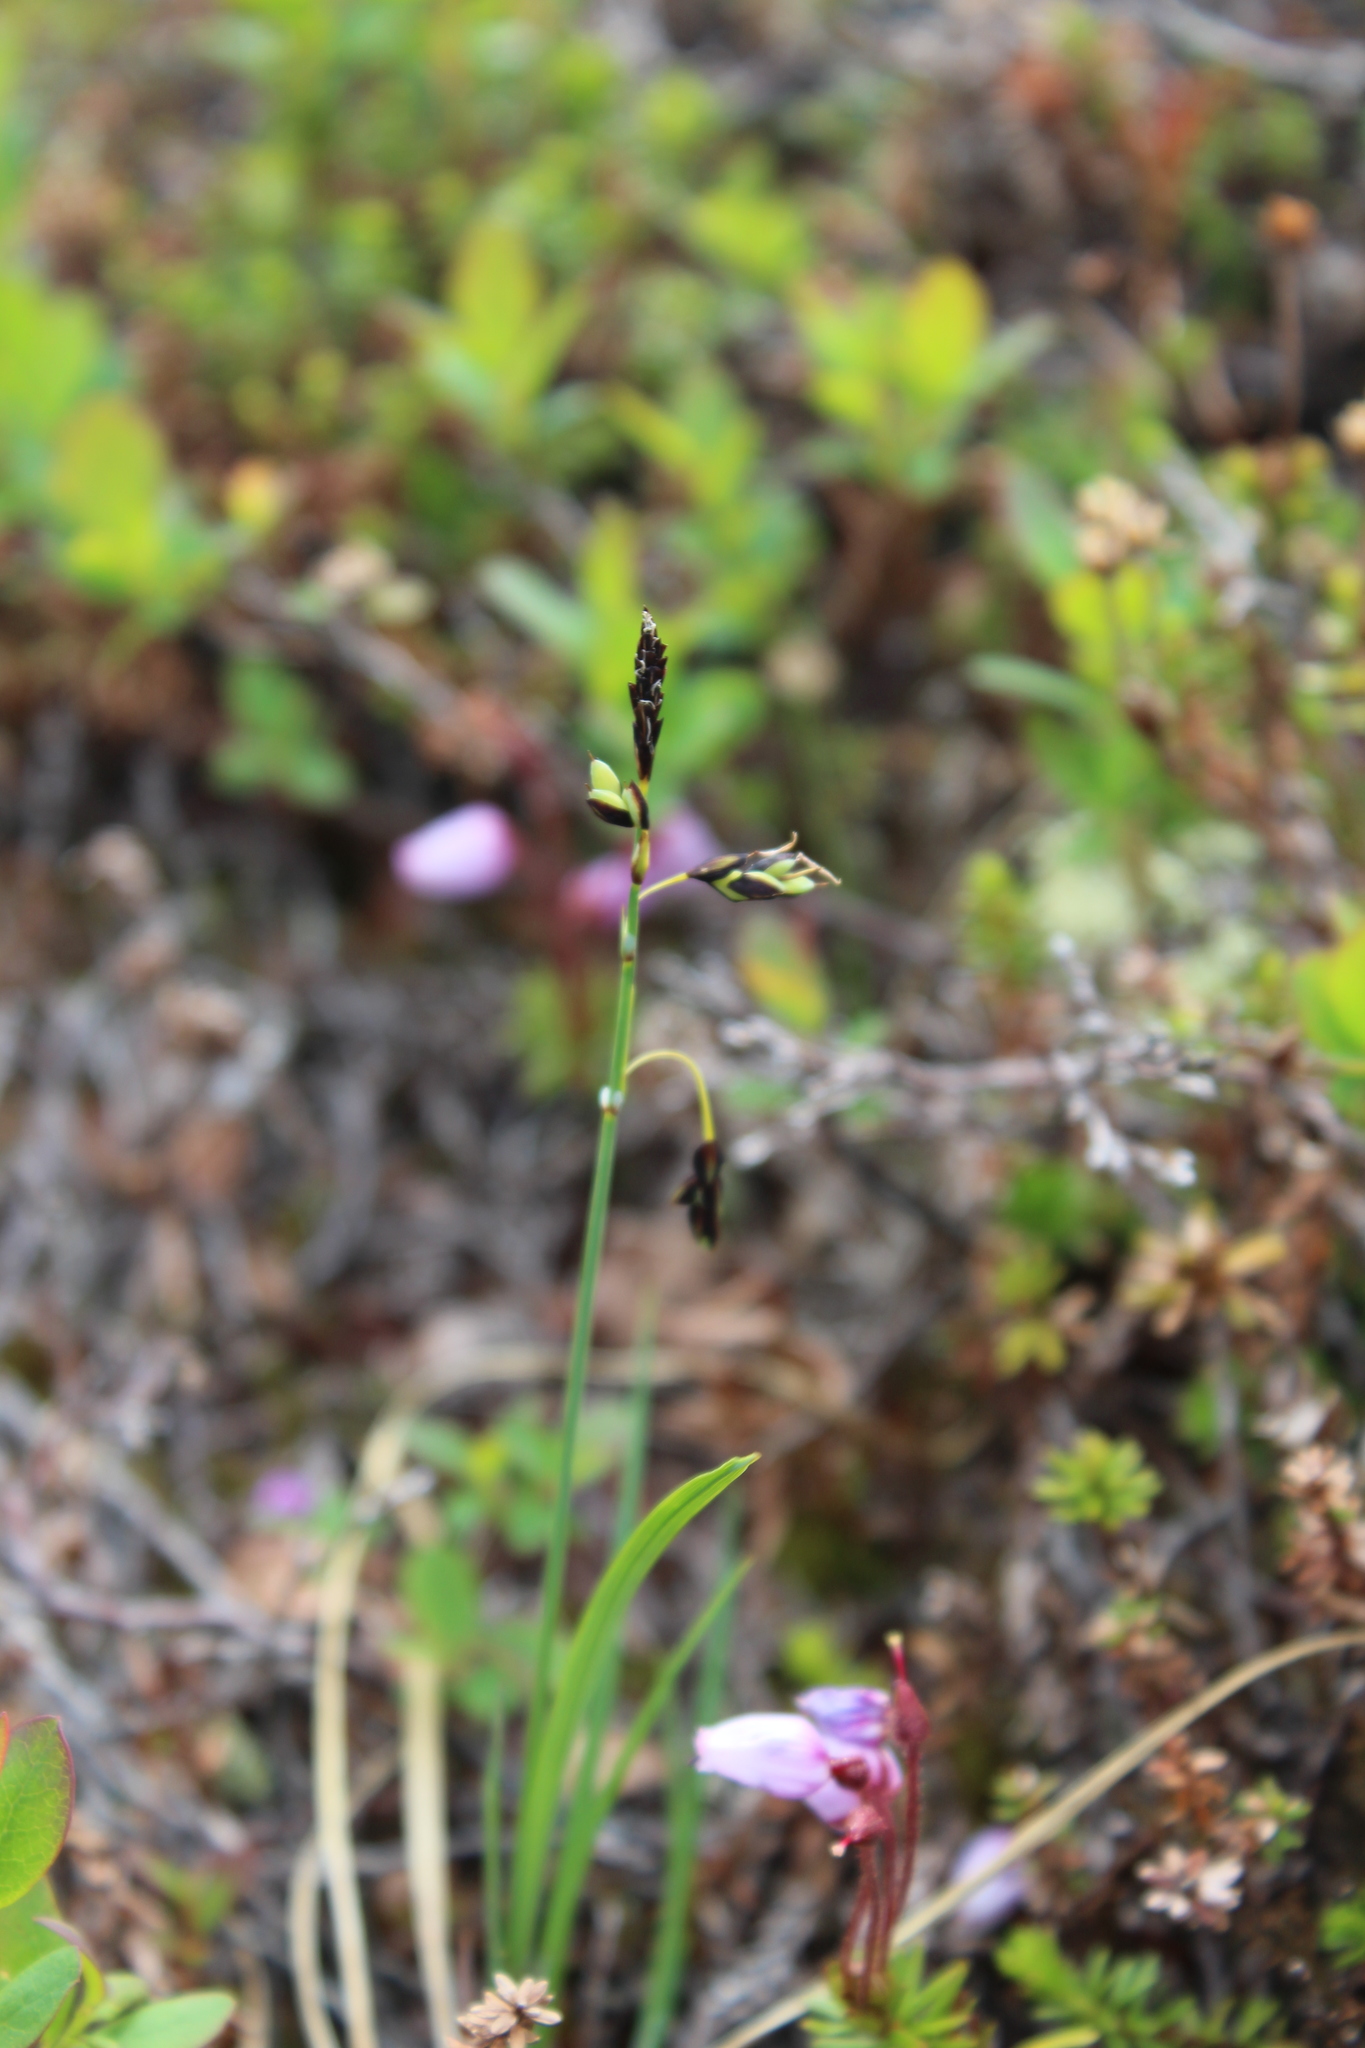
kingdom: Plantae
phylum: Tracheophyta
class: Liliopsida
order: Poales
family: Cyperaceae
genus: Carex
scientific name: Carex rariflora
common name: Loose-flowered alpine sedge
